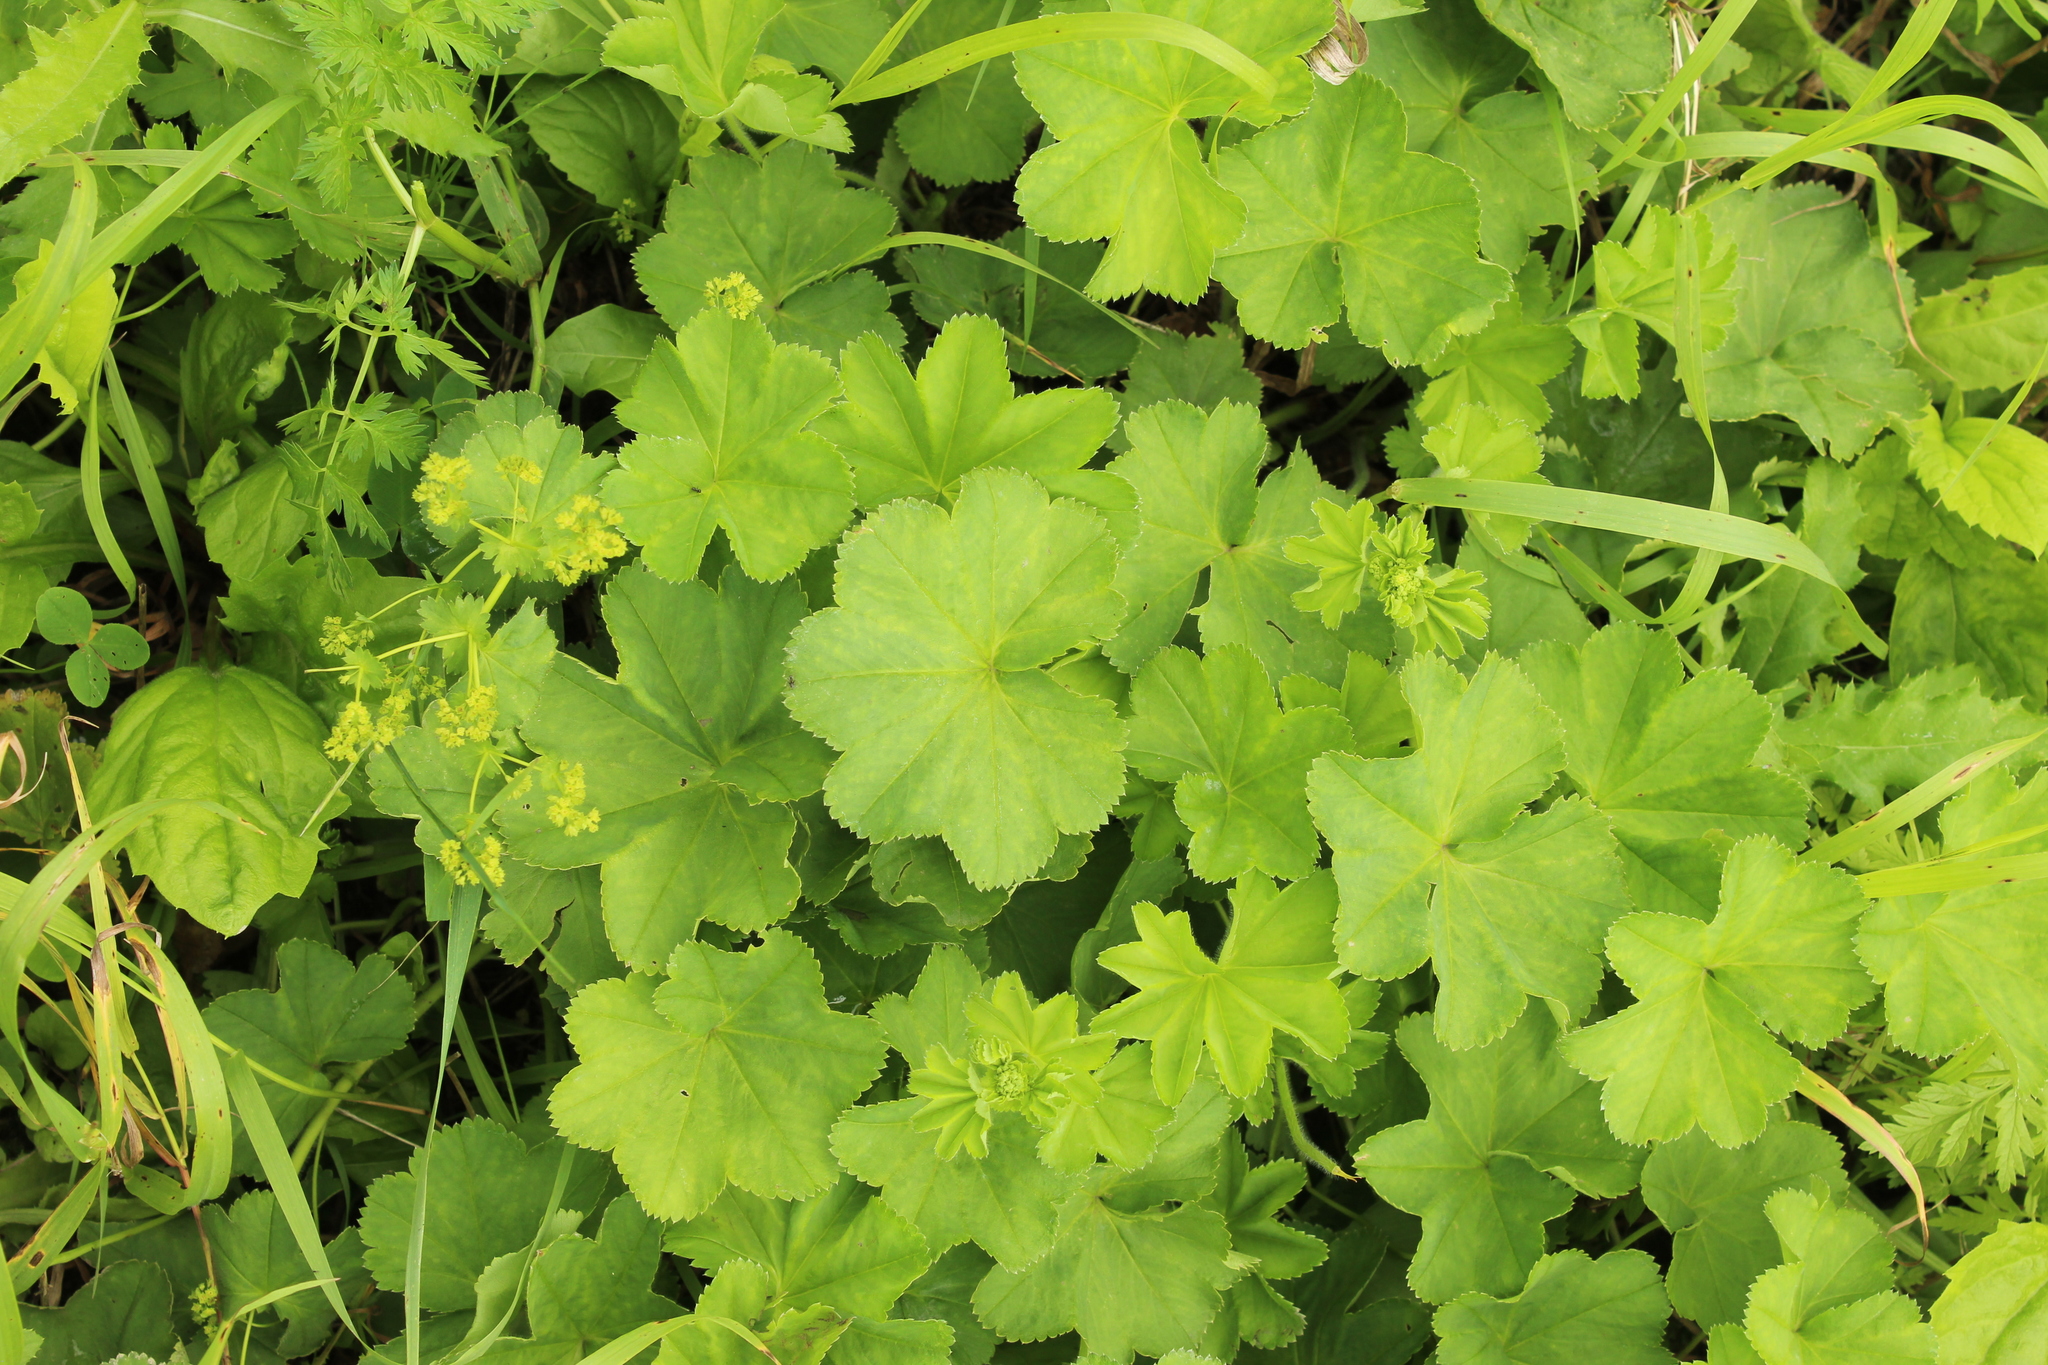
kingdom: Plantae
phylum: Tracheophyta
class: Magnoliopsida
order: Rosales
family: Rosaceae
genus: Alchemilla
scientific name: Alchemilla cymatophylla
